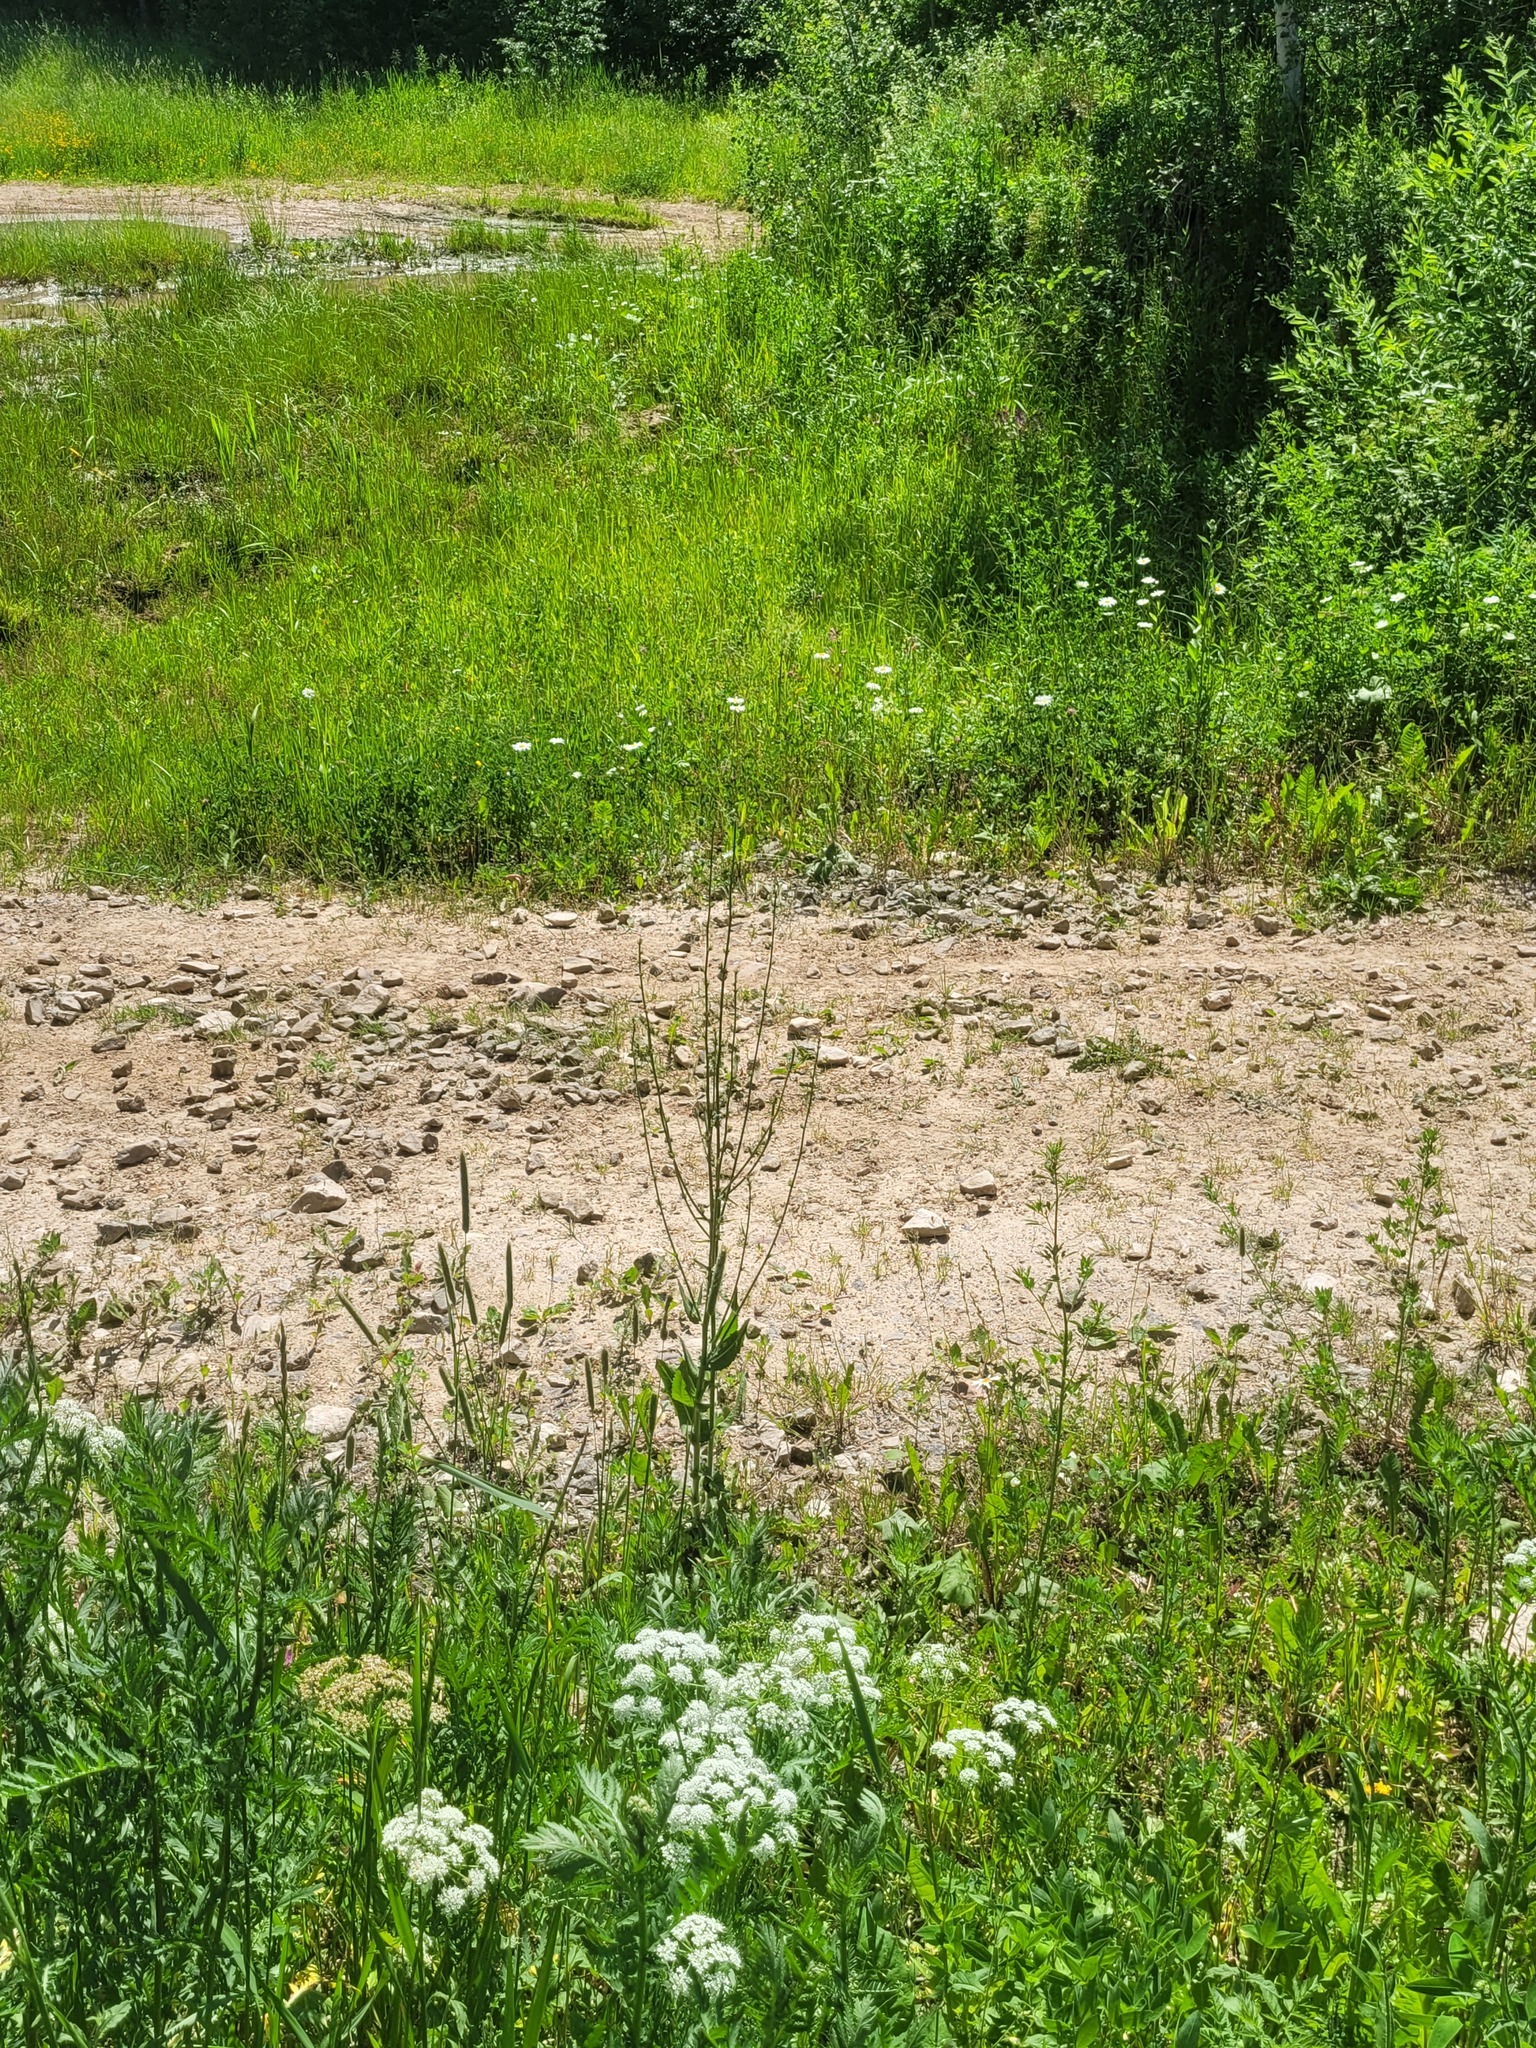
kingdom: Plantae
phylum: Tracheophyta
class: Magnoliopsida
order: Asterales
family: Asteraceae
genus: Cichorium
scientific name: Cichorium intybus
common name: Chicory
